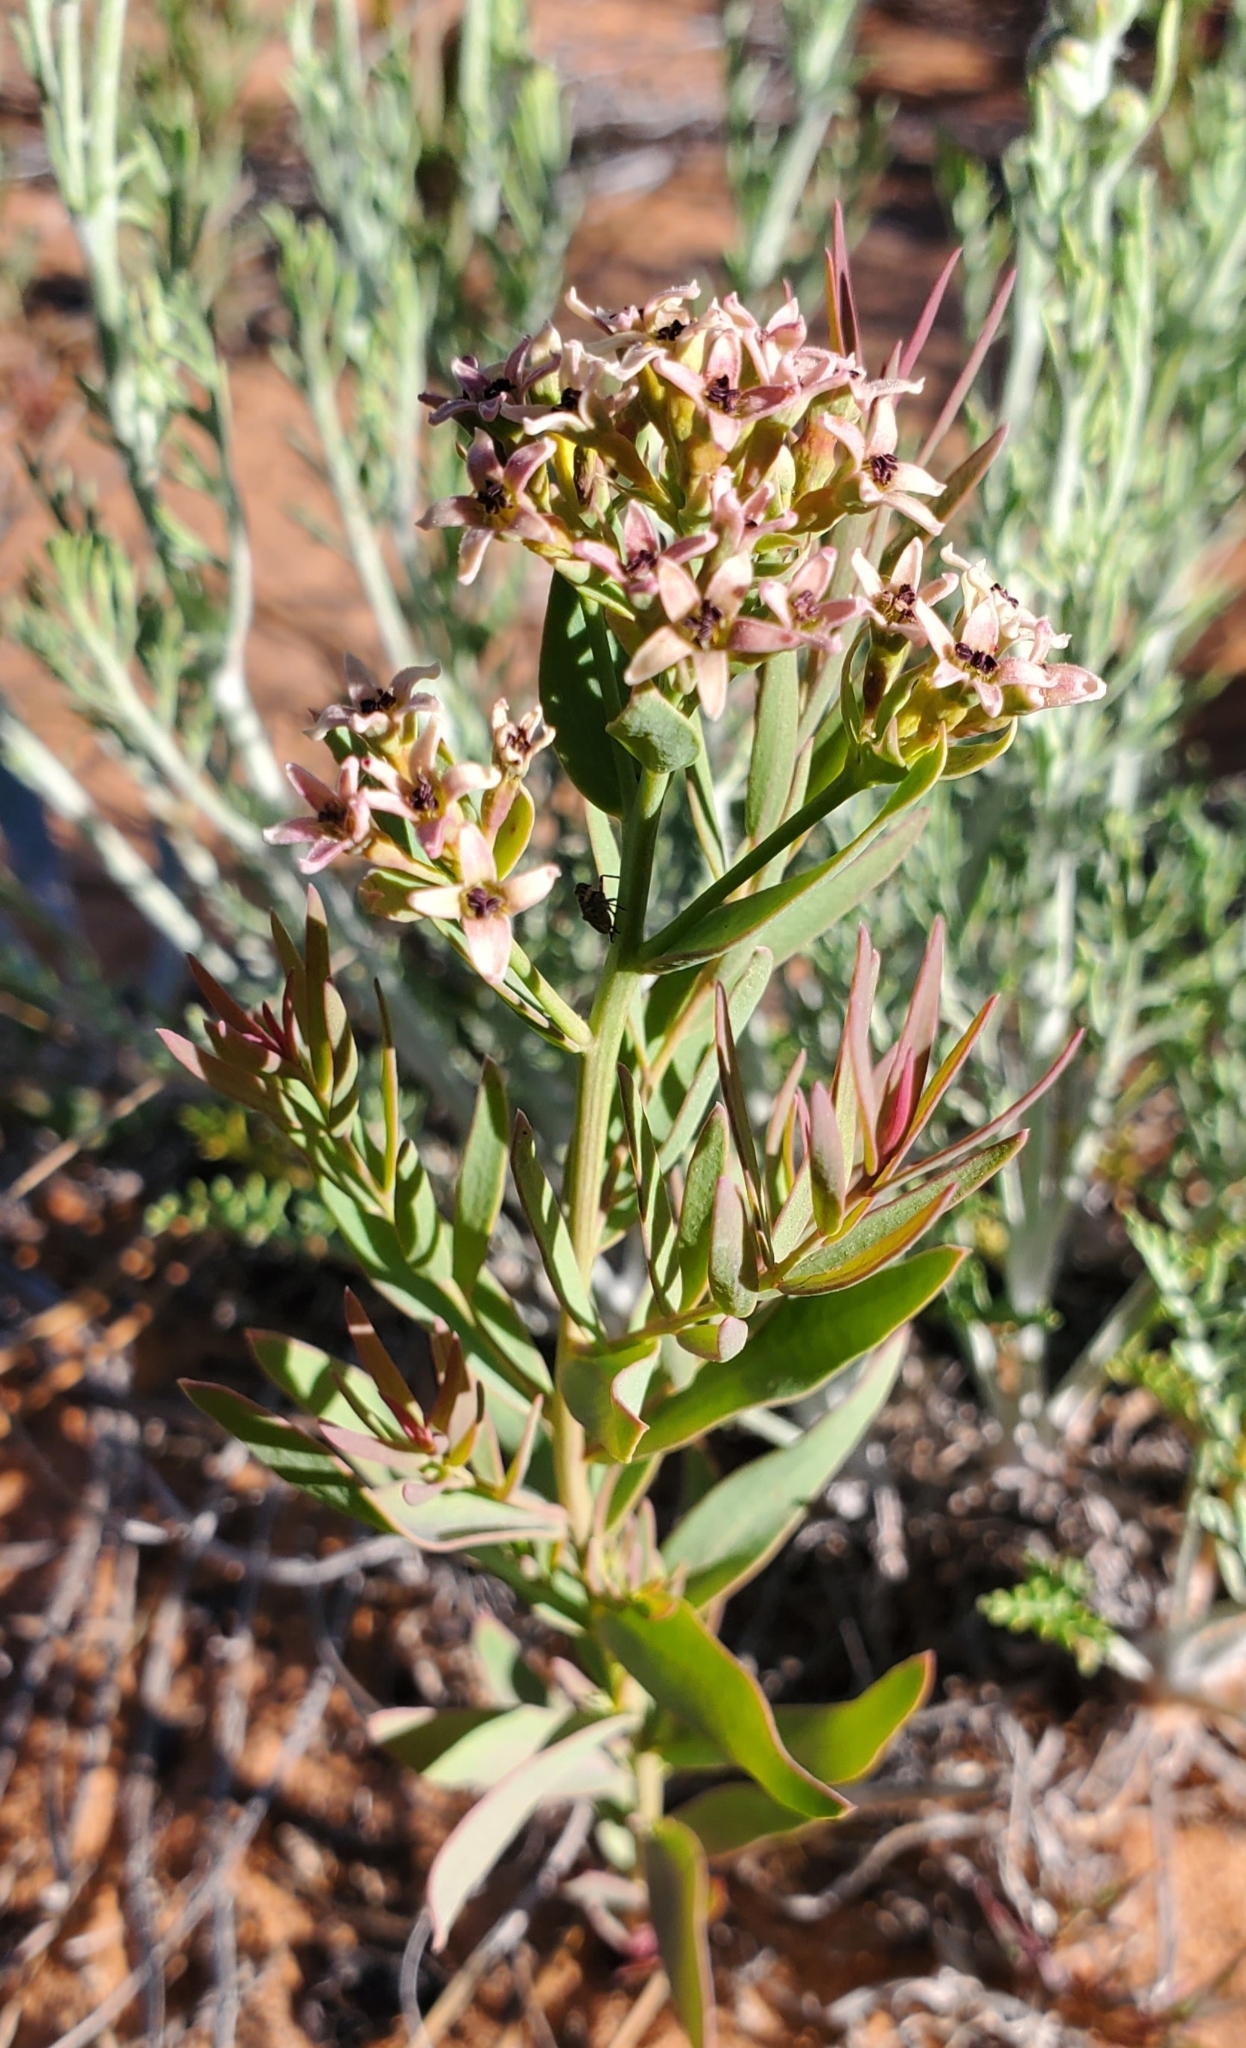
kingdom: Plantae
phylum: Tracheophyta
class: Magnoliopsida
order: Santalales
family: Comandraceae
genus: Comandra
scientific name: Comandra umbellata
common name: Bastard toadflax
